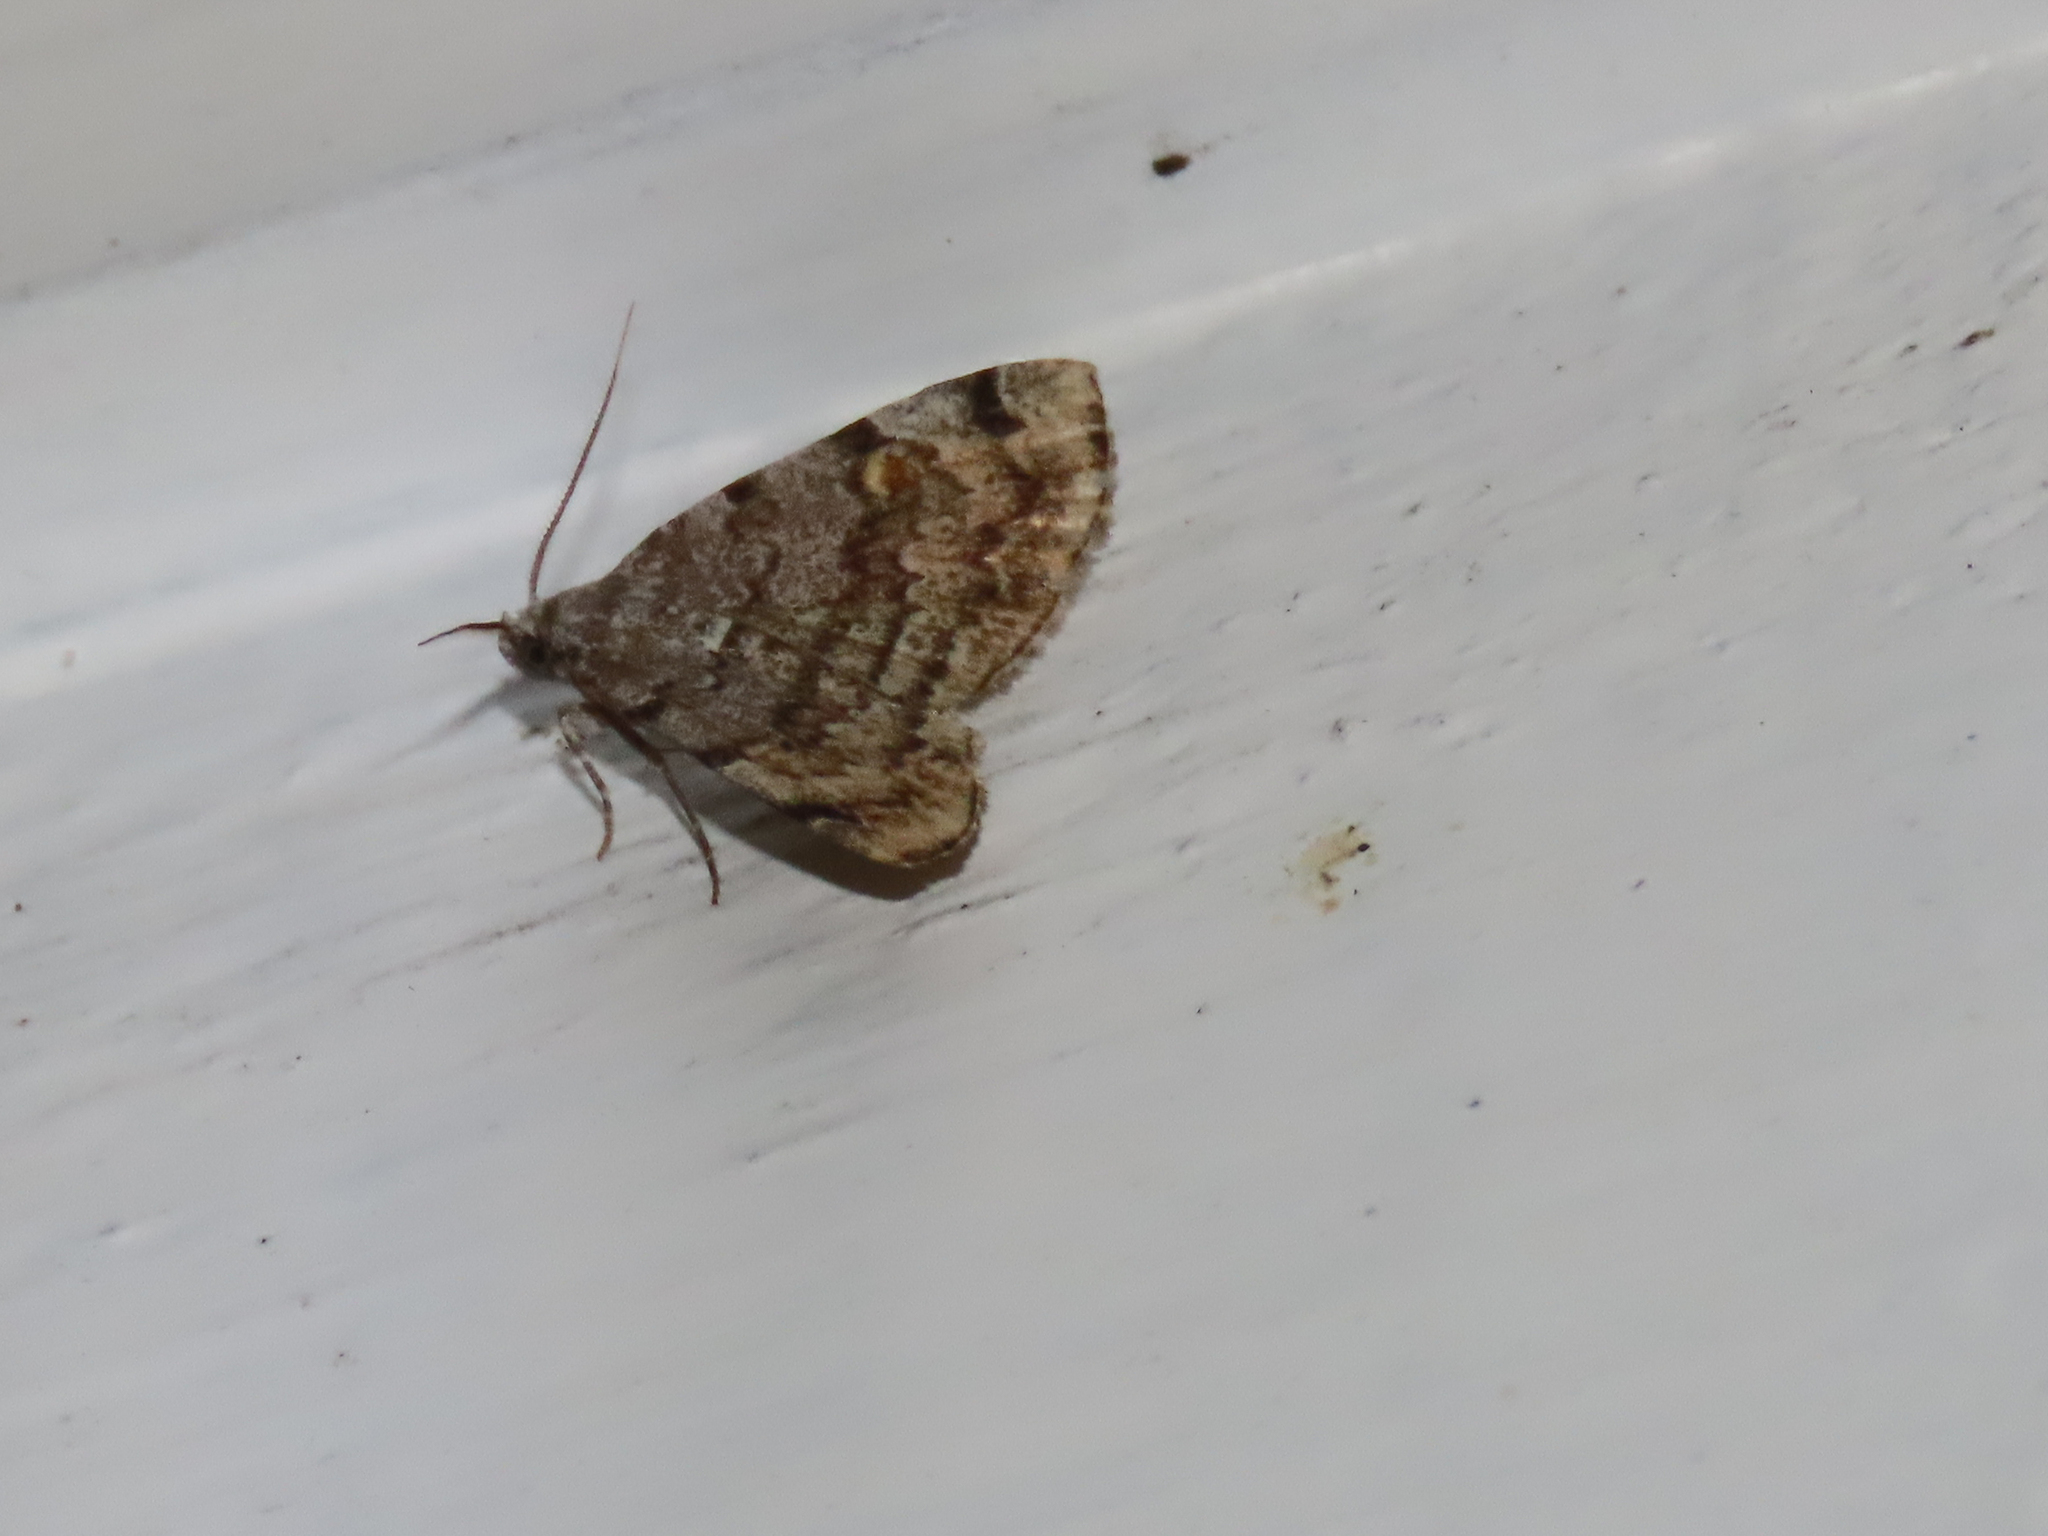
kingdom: Animalia
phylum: Arthropoda
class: Insecta
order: Lepidoptera
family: Erebidae
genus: Idia
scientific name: Idia americalis
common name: American idia moth
